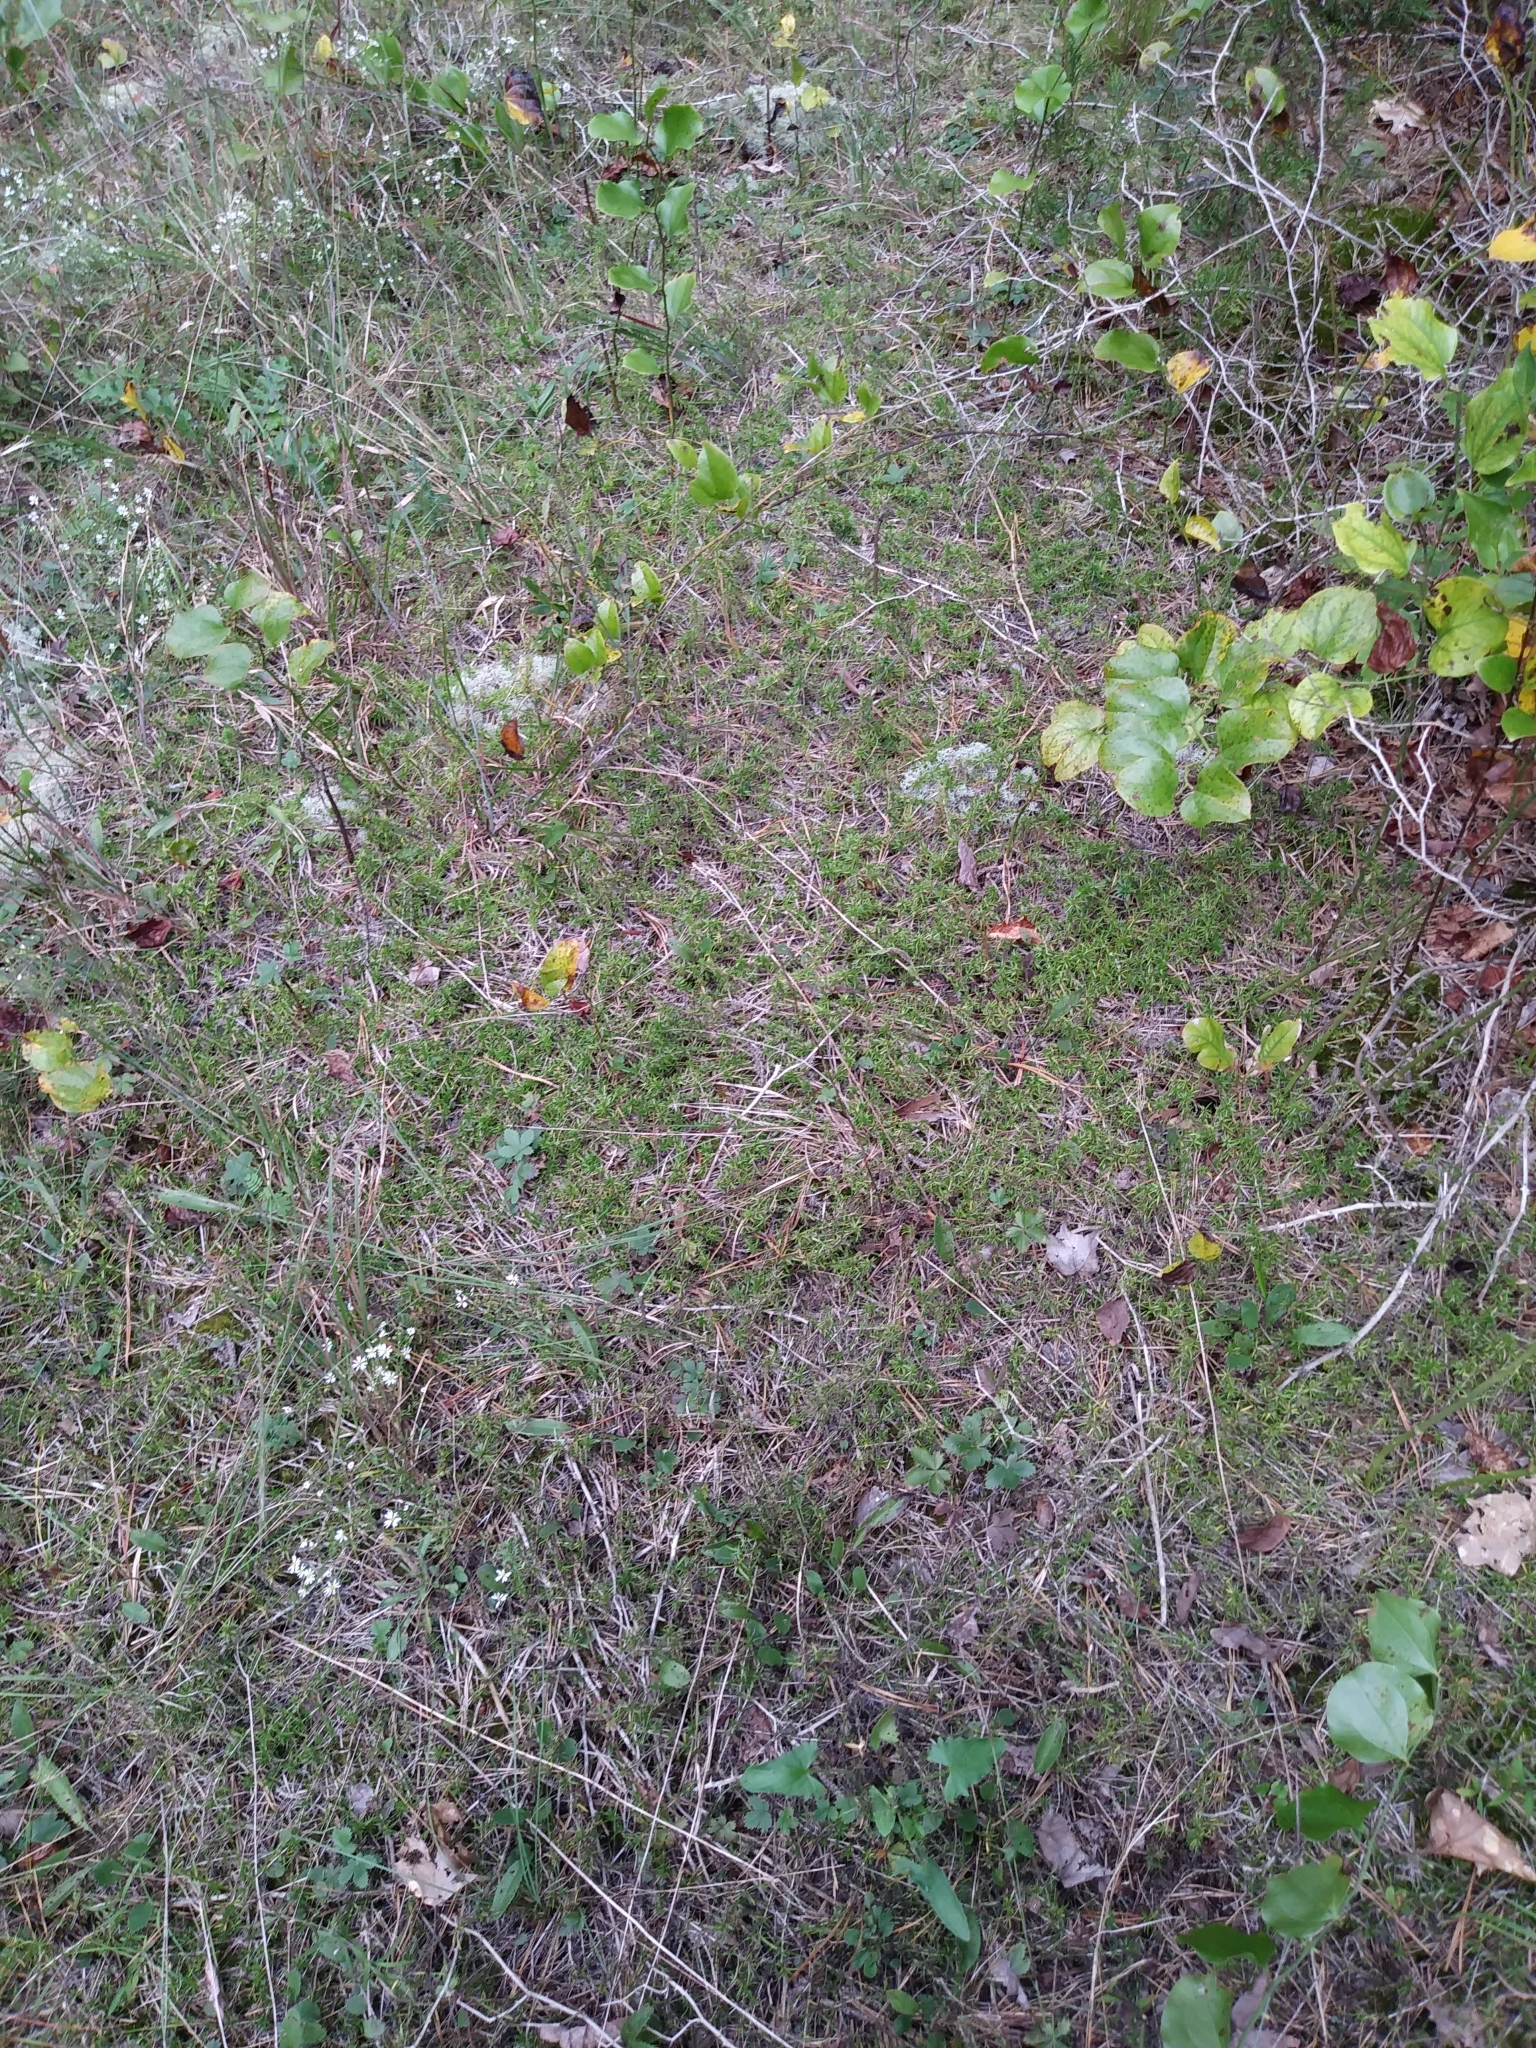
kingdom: Plantae
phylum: Tracheophyta
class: Magnoliopsida
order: Ericales
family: Polemoniaceae
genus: Phlox
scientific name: Phlox subulata
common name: Moss phlox
